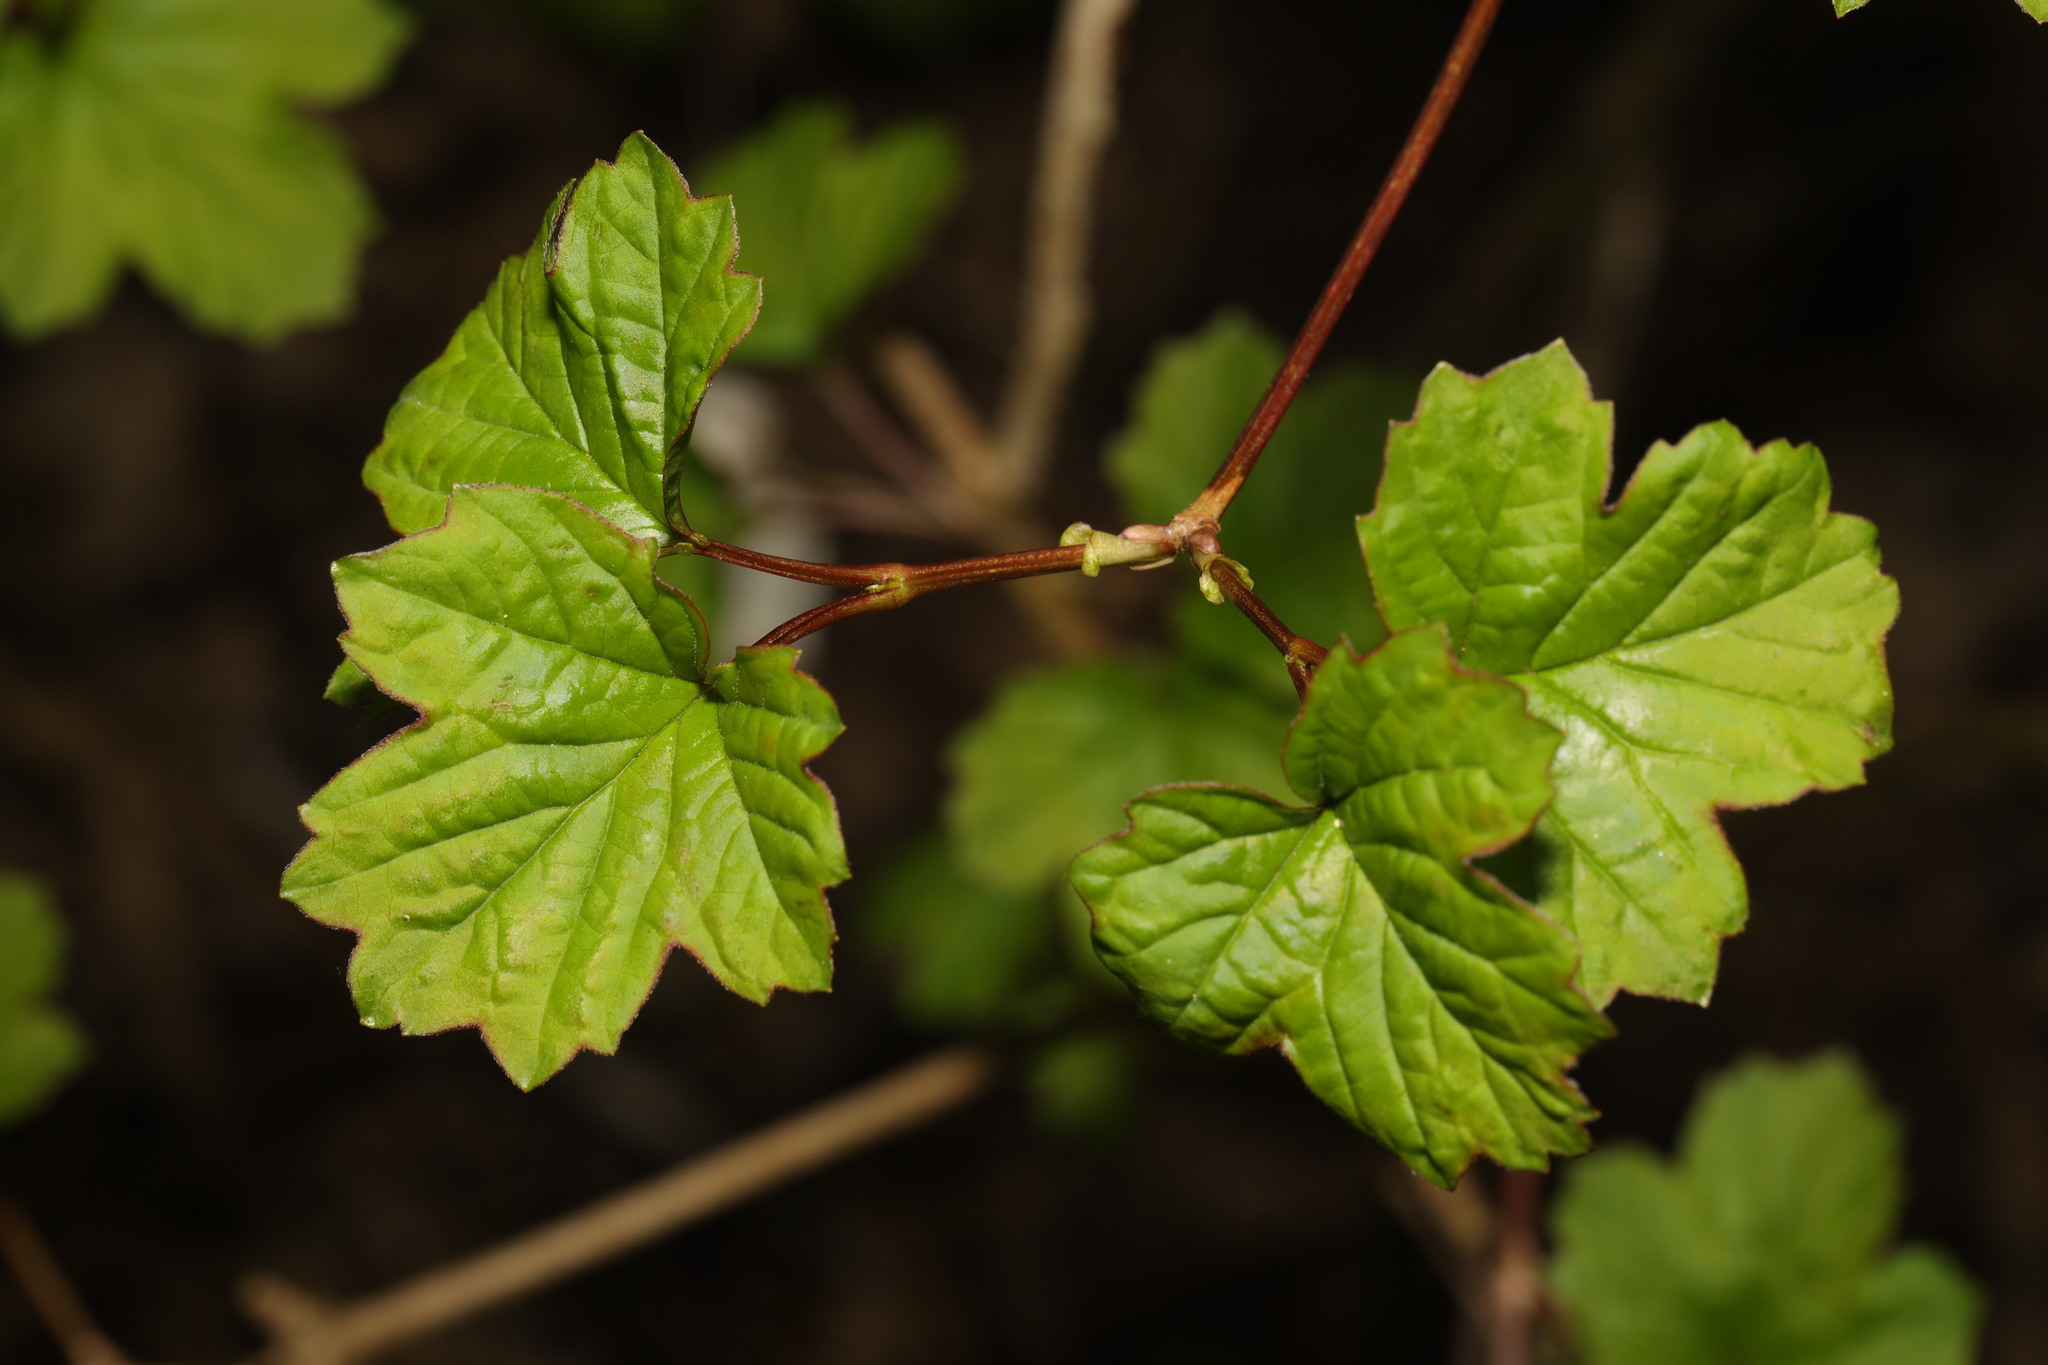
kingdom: Plantae
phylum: Tracheophyta
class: Magnoliopsida
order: Dipsacales
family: Viburnaceae
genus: Viburnum
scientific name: Viburnum opulus
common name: Guelder-rose
